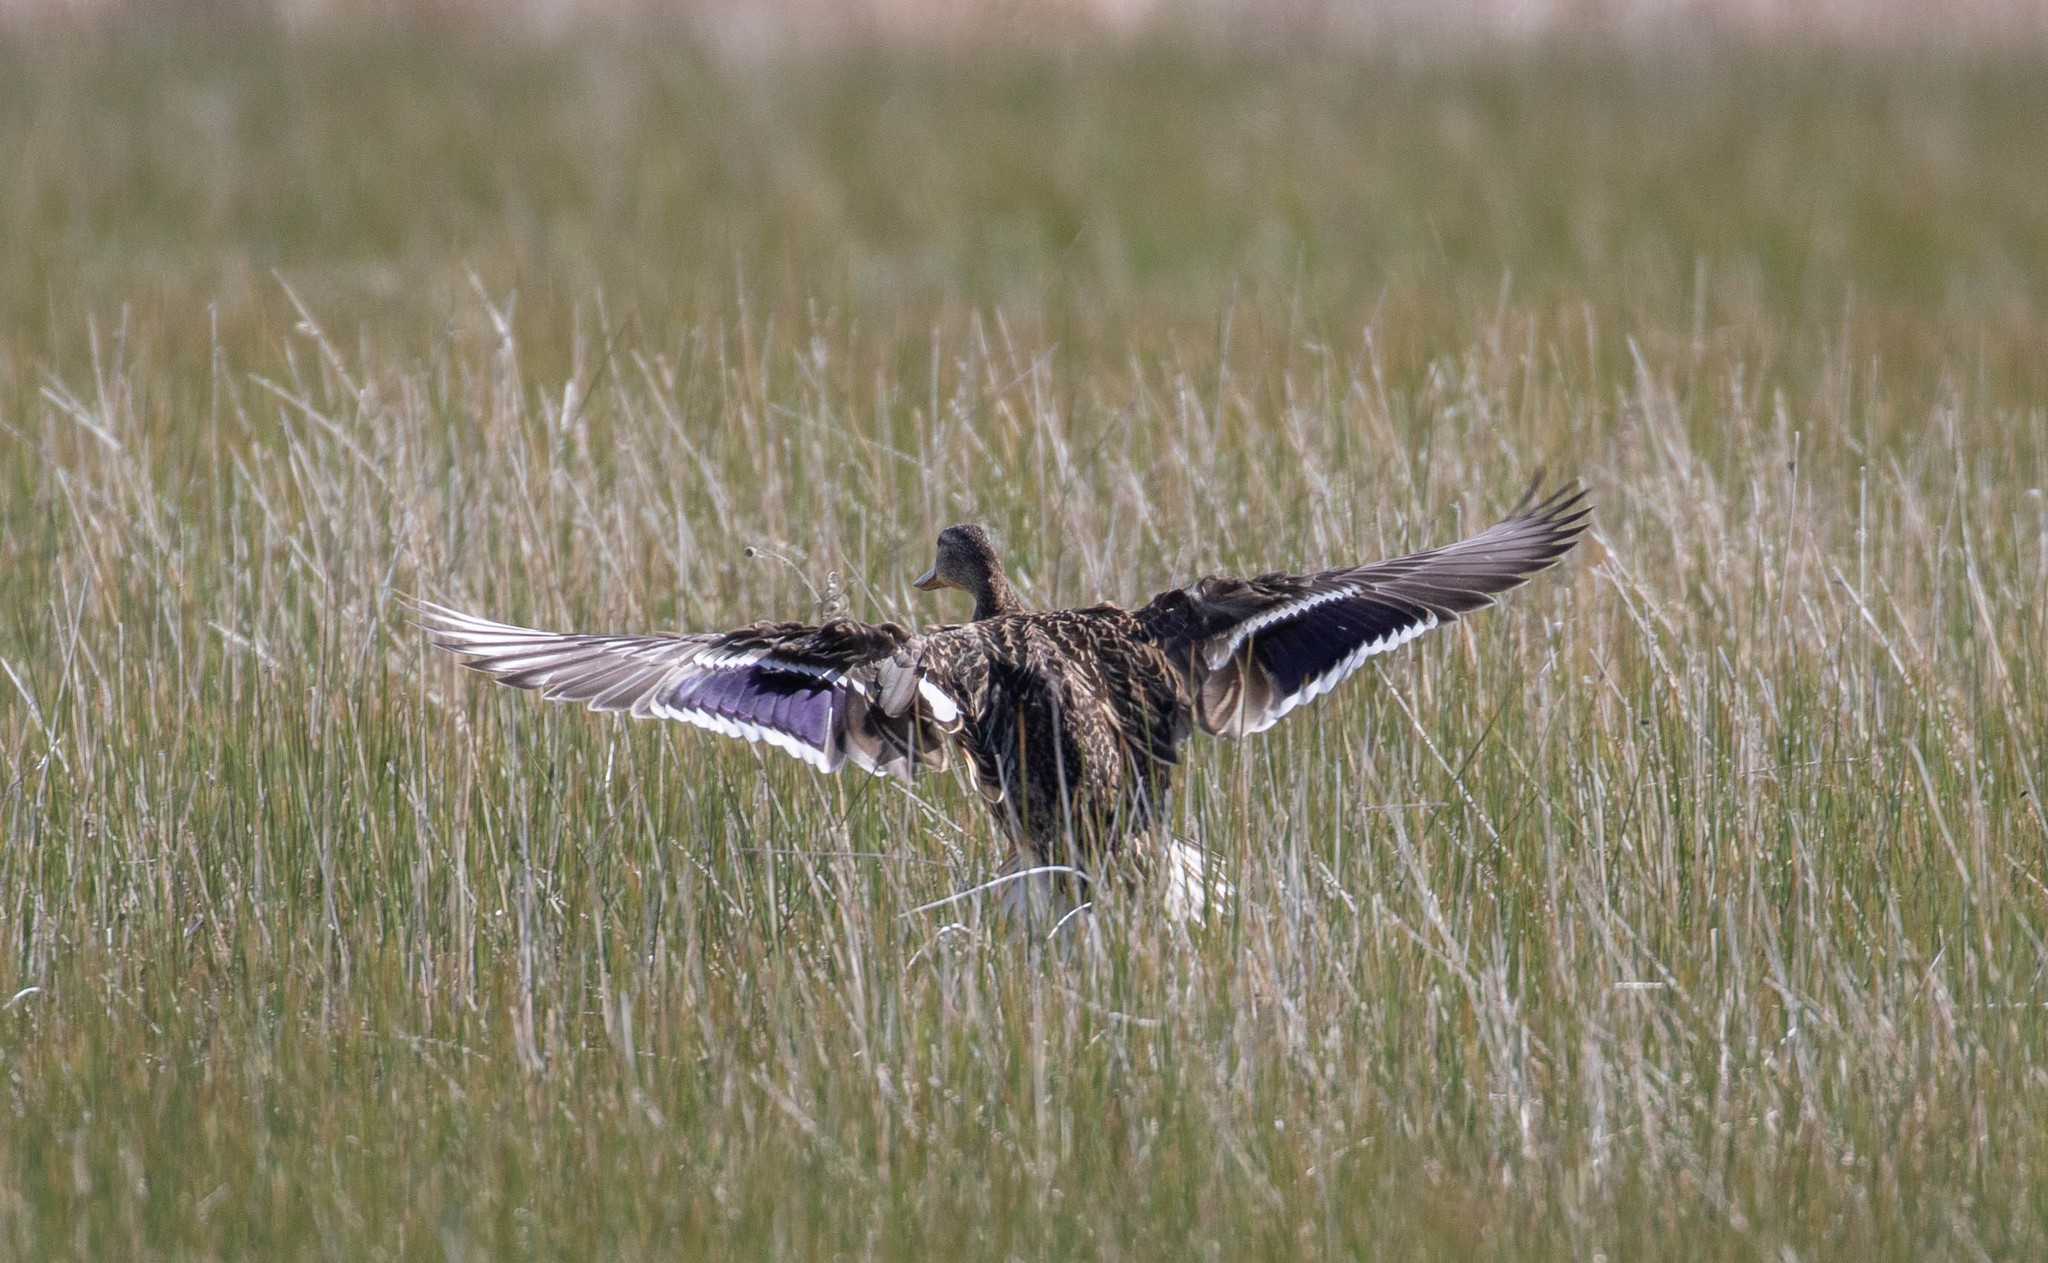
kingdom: Animalia
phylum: Chordata
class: Aves
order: Anseriformes
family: Anatidae
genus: Anas
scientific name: Anas platyrhynchos
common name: Mallard
